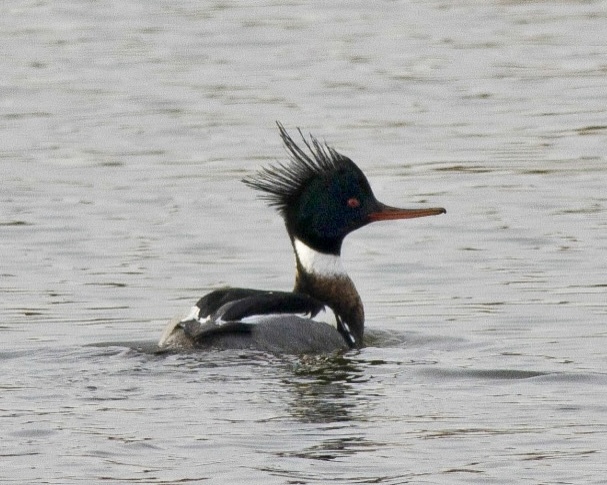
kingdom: Animalia
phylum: Chordata
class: Aves
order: Anseriformes
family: Anatidae
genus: Mergus
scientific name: Mergus serrator
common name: Red-breasted merganser
